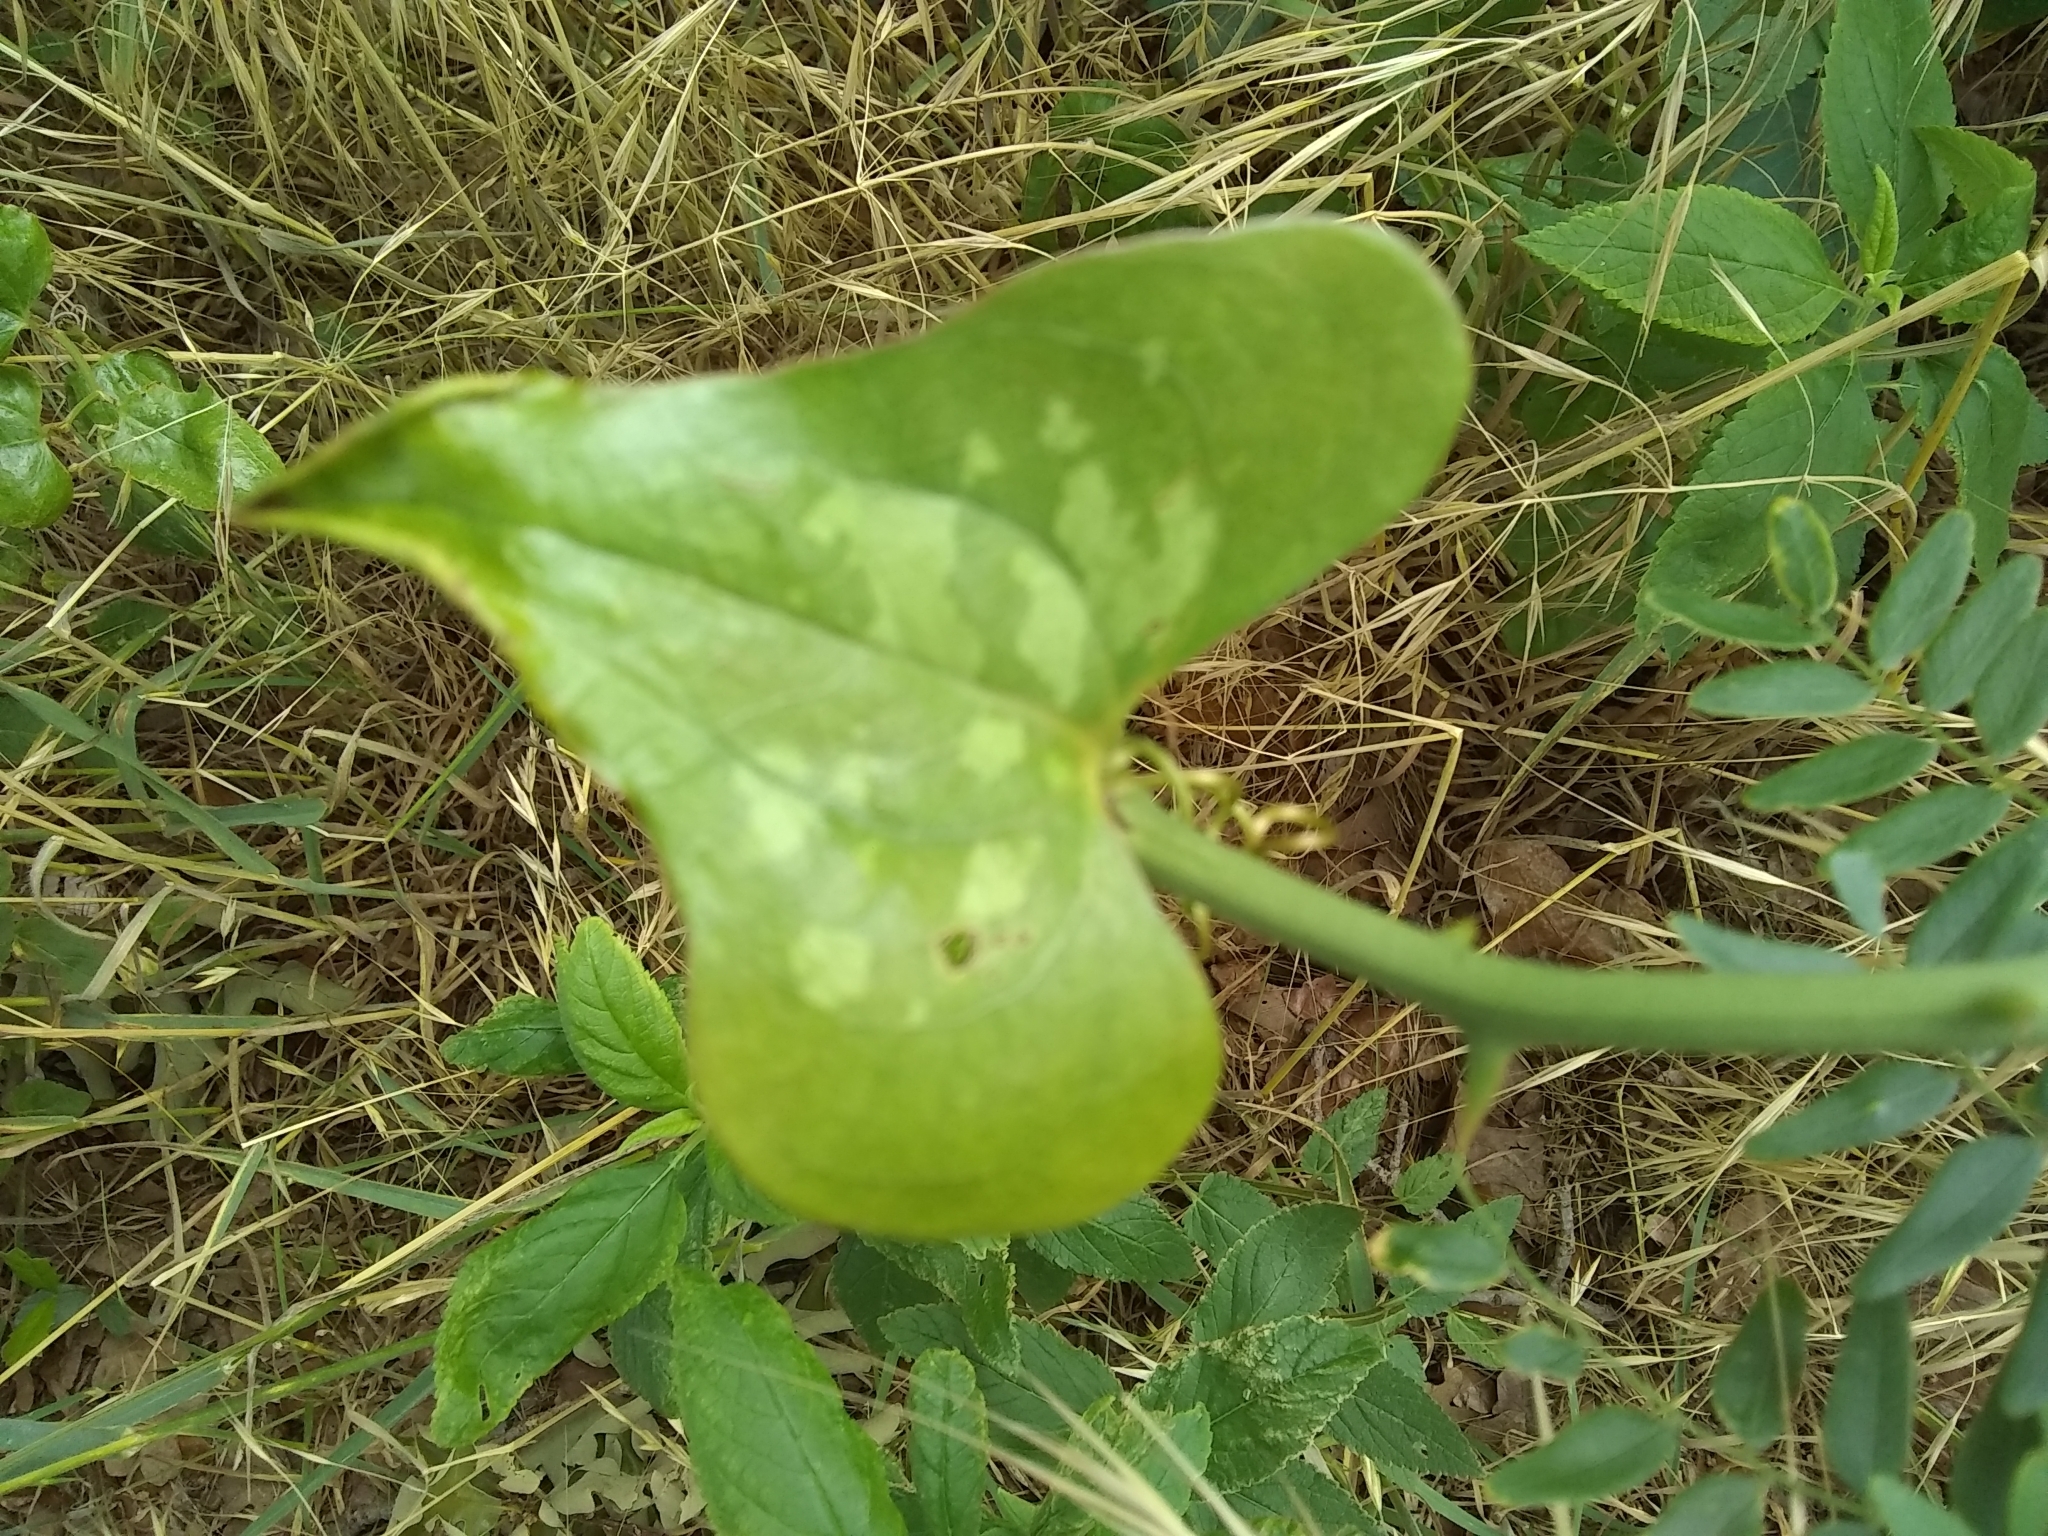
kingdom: Plantae
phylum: Tracheophyta
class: Liliopsida
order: Liliales
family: Smilacaceae
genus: Smilax
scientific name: Smilax bona-nox
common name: Catbrier
